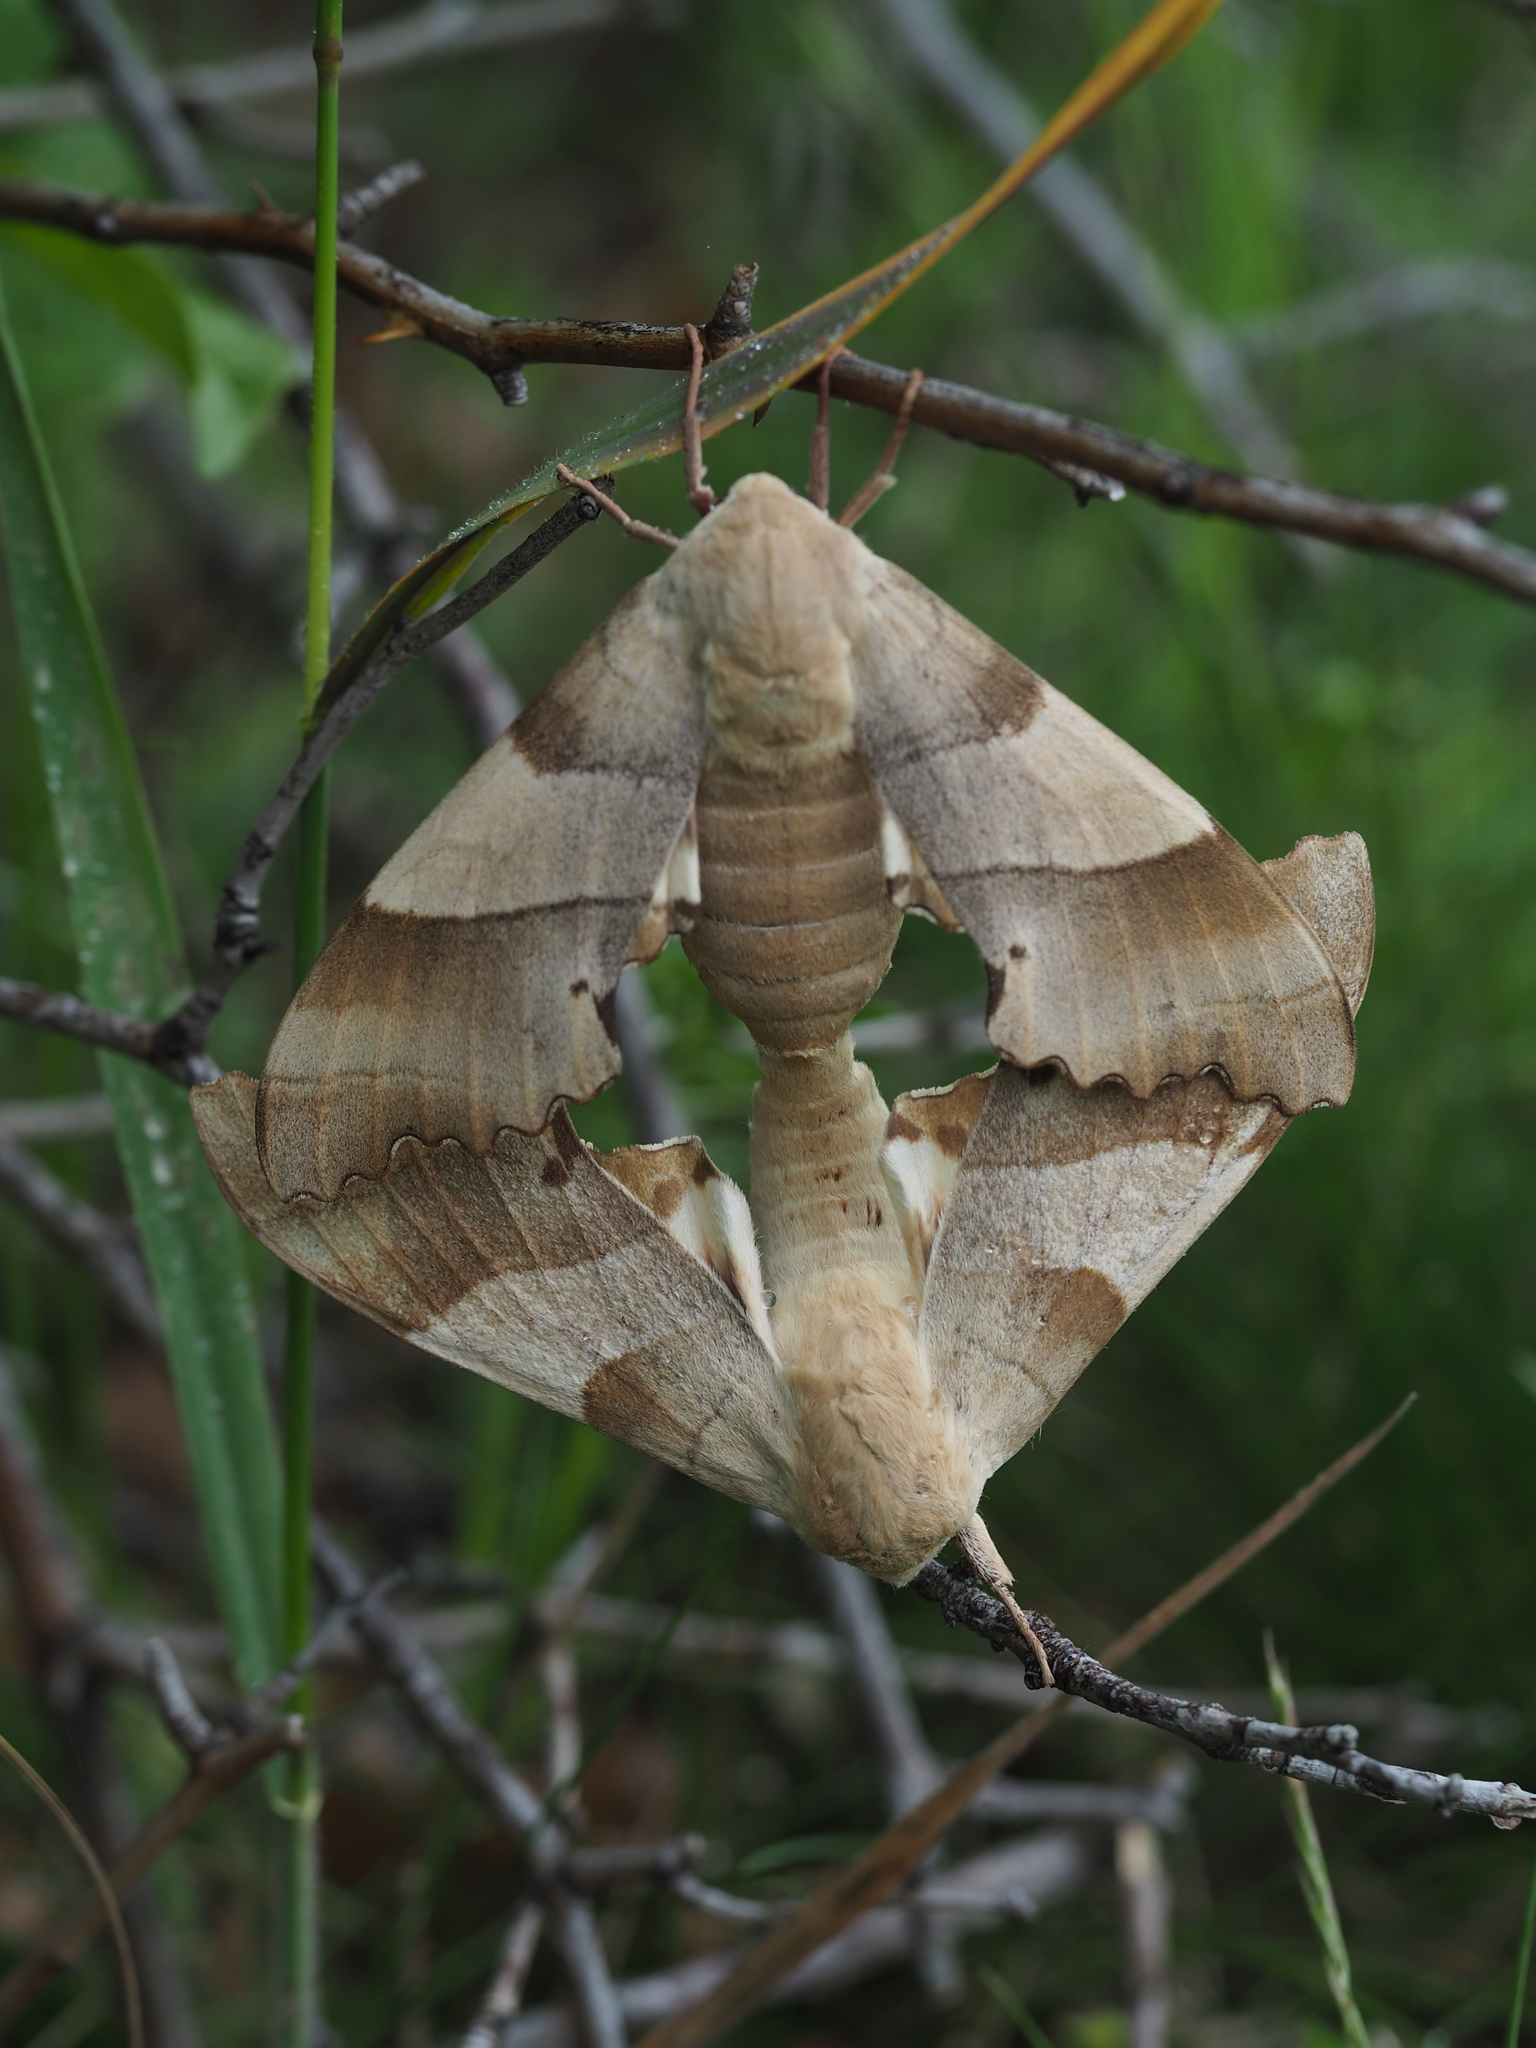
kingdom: Animalia
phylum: Arthropoda
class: Insecta
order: Lepidoptera
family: Sphingidae
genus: Marumba
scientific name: Marumba quercus
